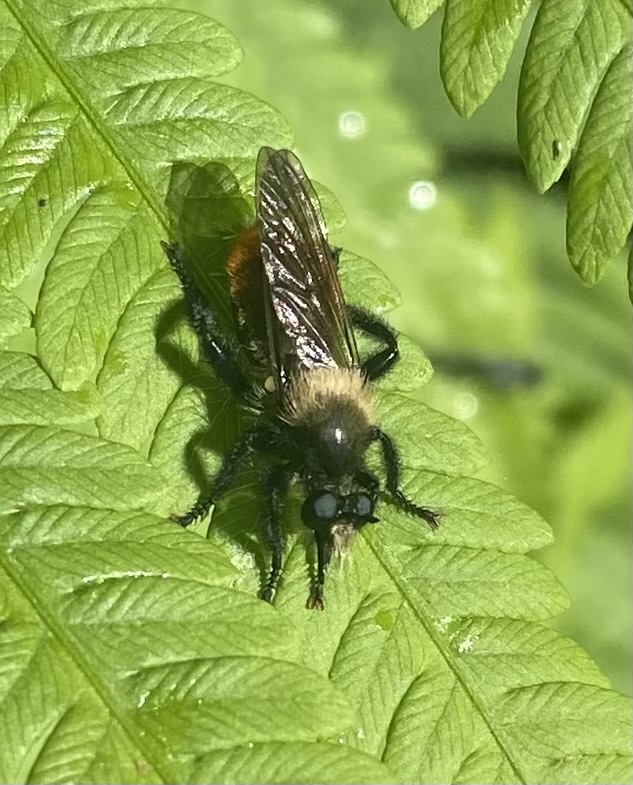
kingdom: Animalia
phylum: Arthropoda
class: Insecta
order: Diptera
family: Asilidae
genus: Laphria
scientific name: Laphria janus
